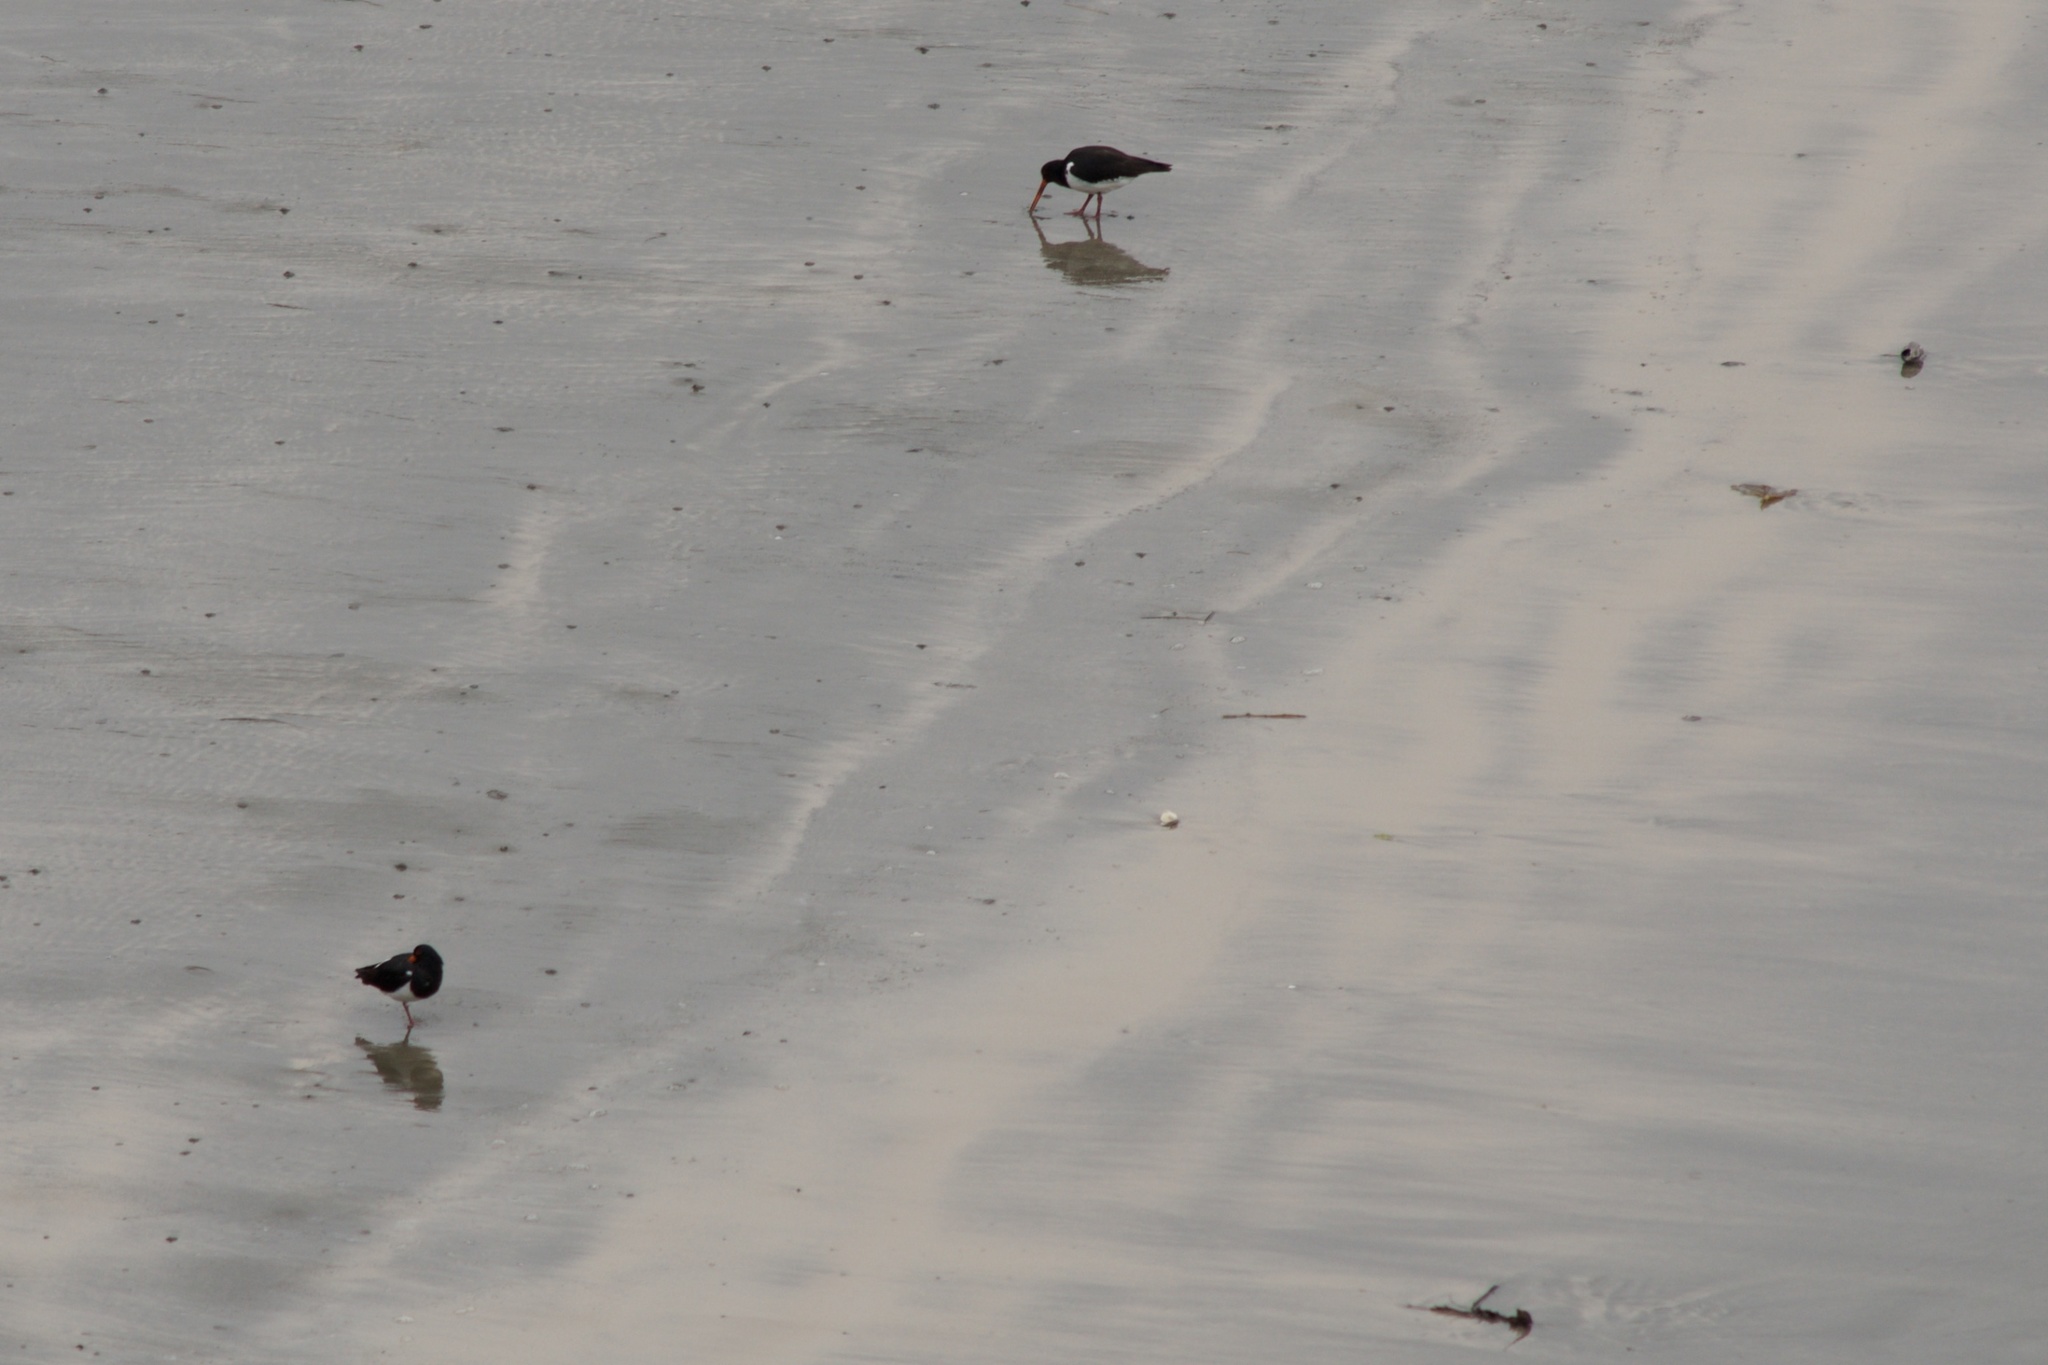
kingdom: Animalia
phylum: Chordata
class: Aves
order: Charadriiformes
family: Haematopodidae
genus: Haematopus
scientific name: Haematopus finschi
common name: South island oystercatcher
